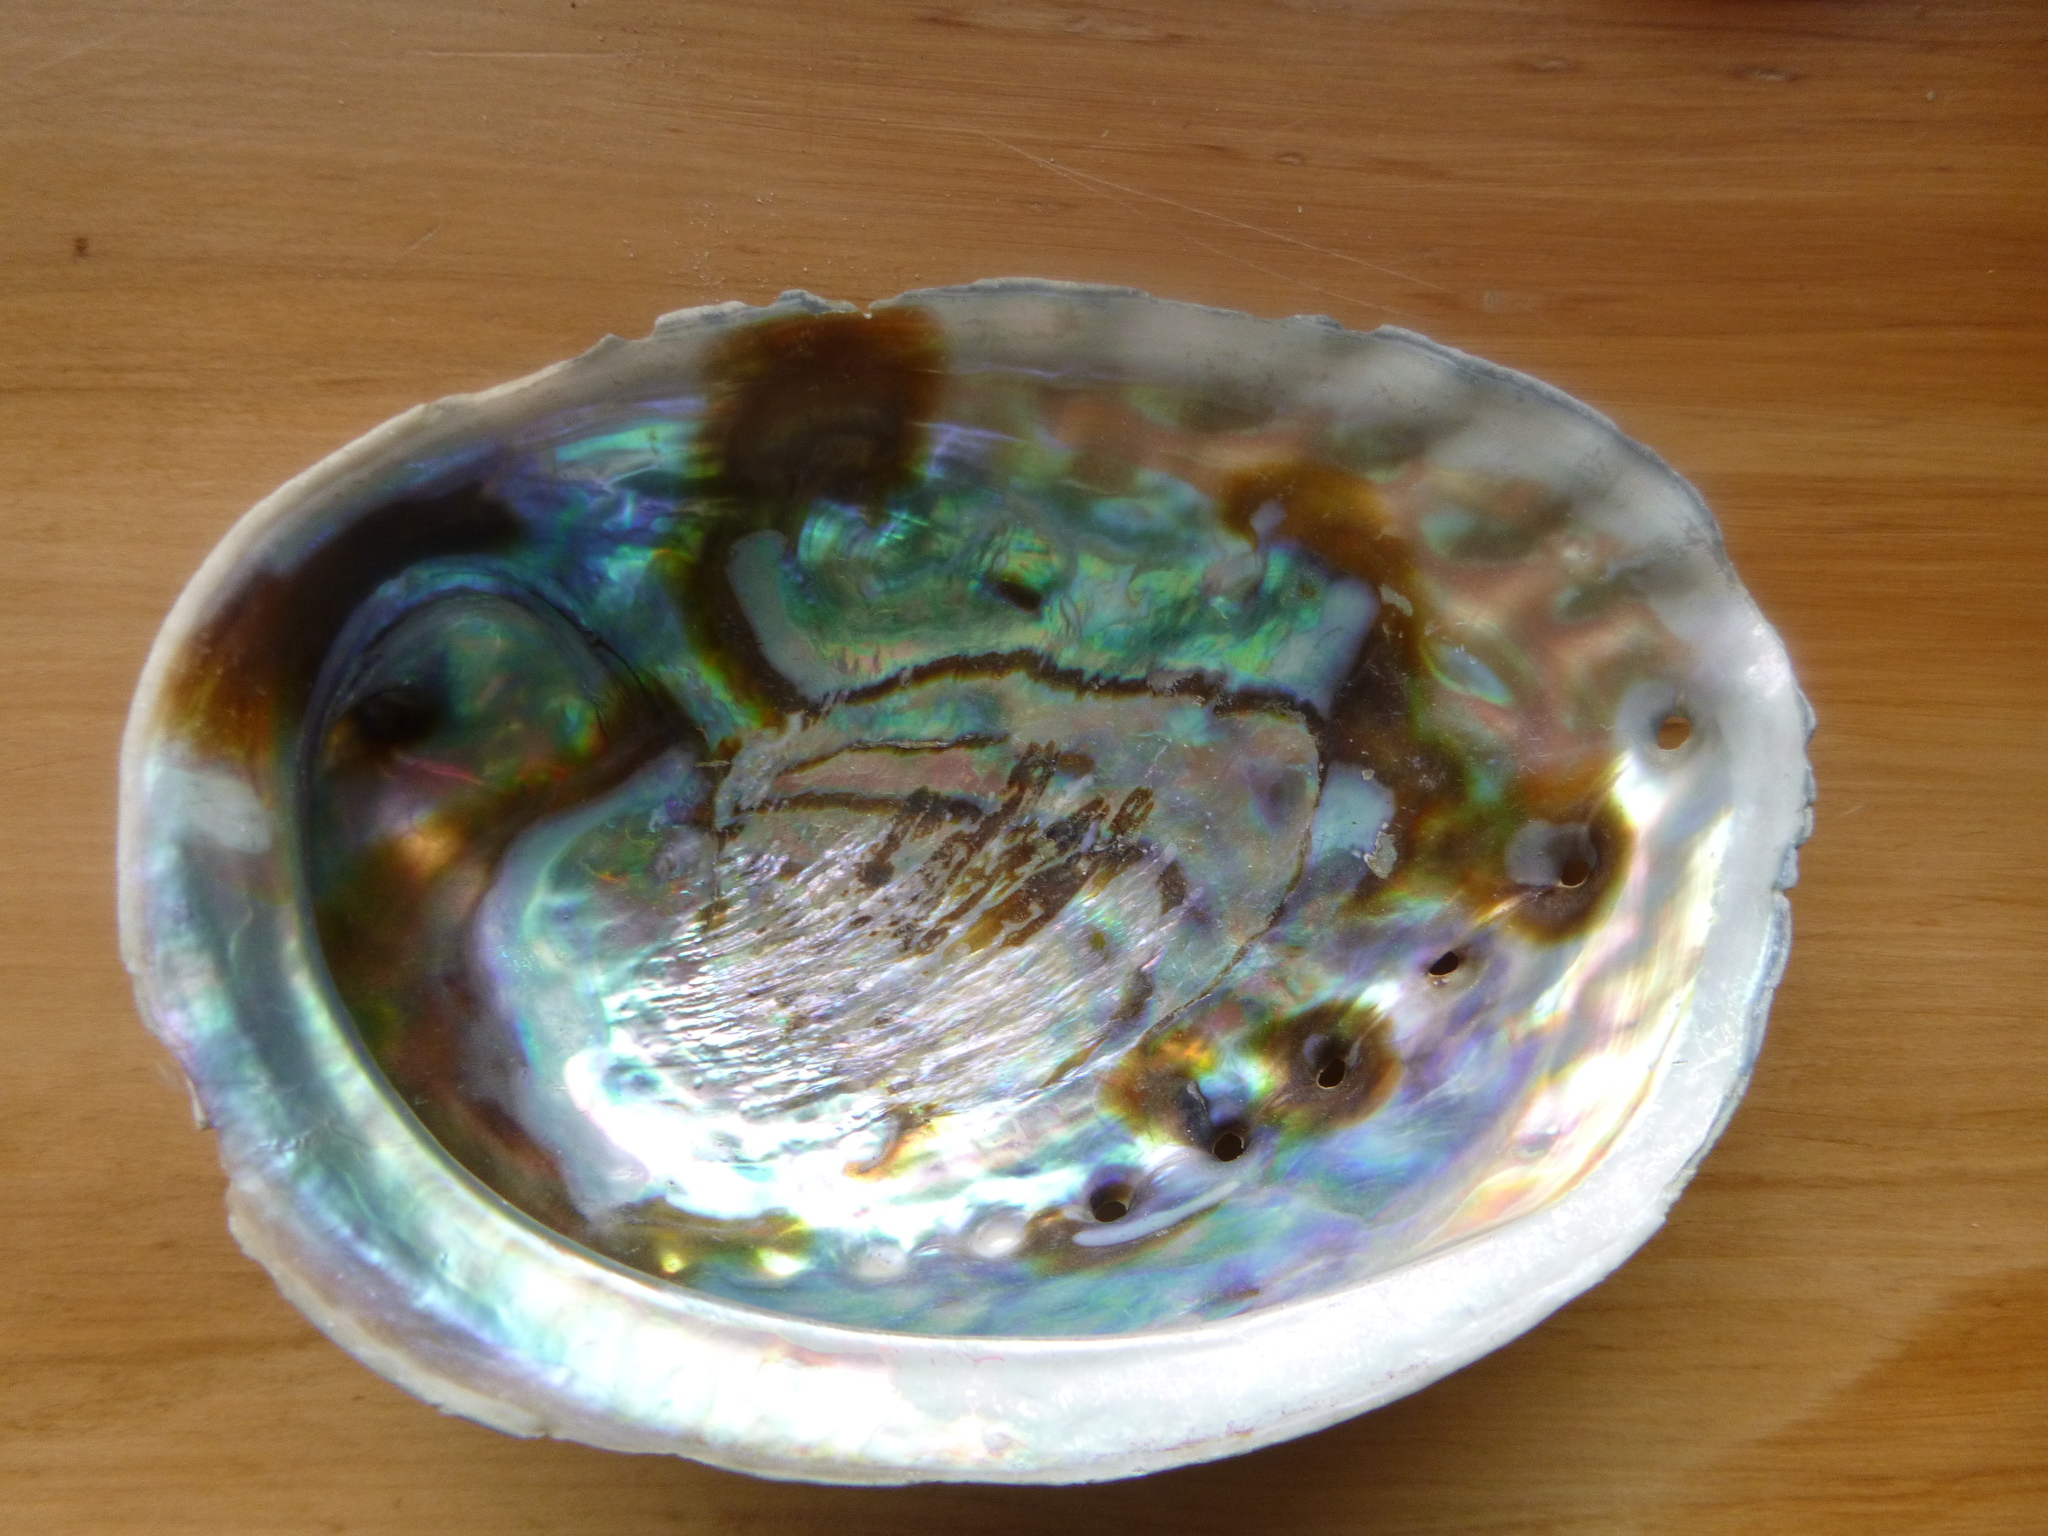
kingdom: Animalia
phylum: Mollusca
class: Gastropoda
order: Lepetellida
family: Haliotidae
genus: Haliotis
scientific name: Haliotis iris
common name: Abalone
